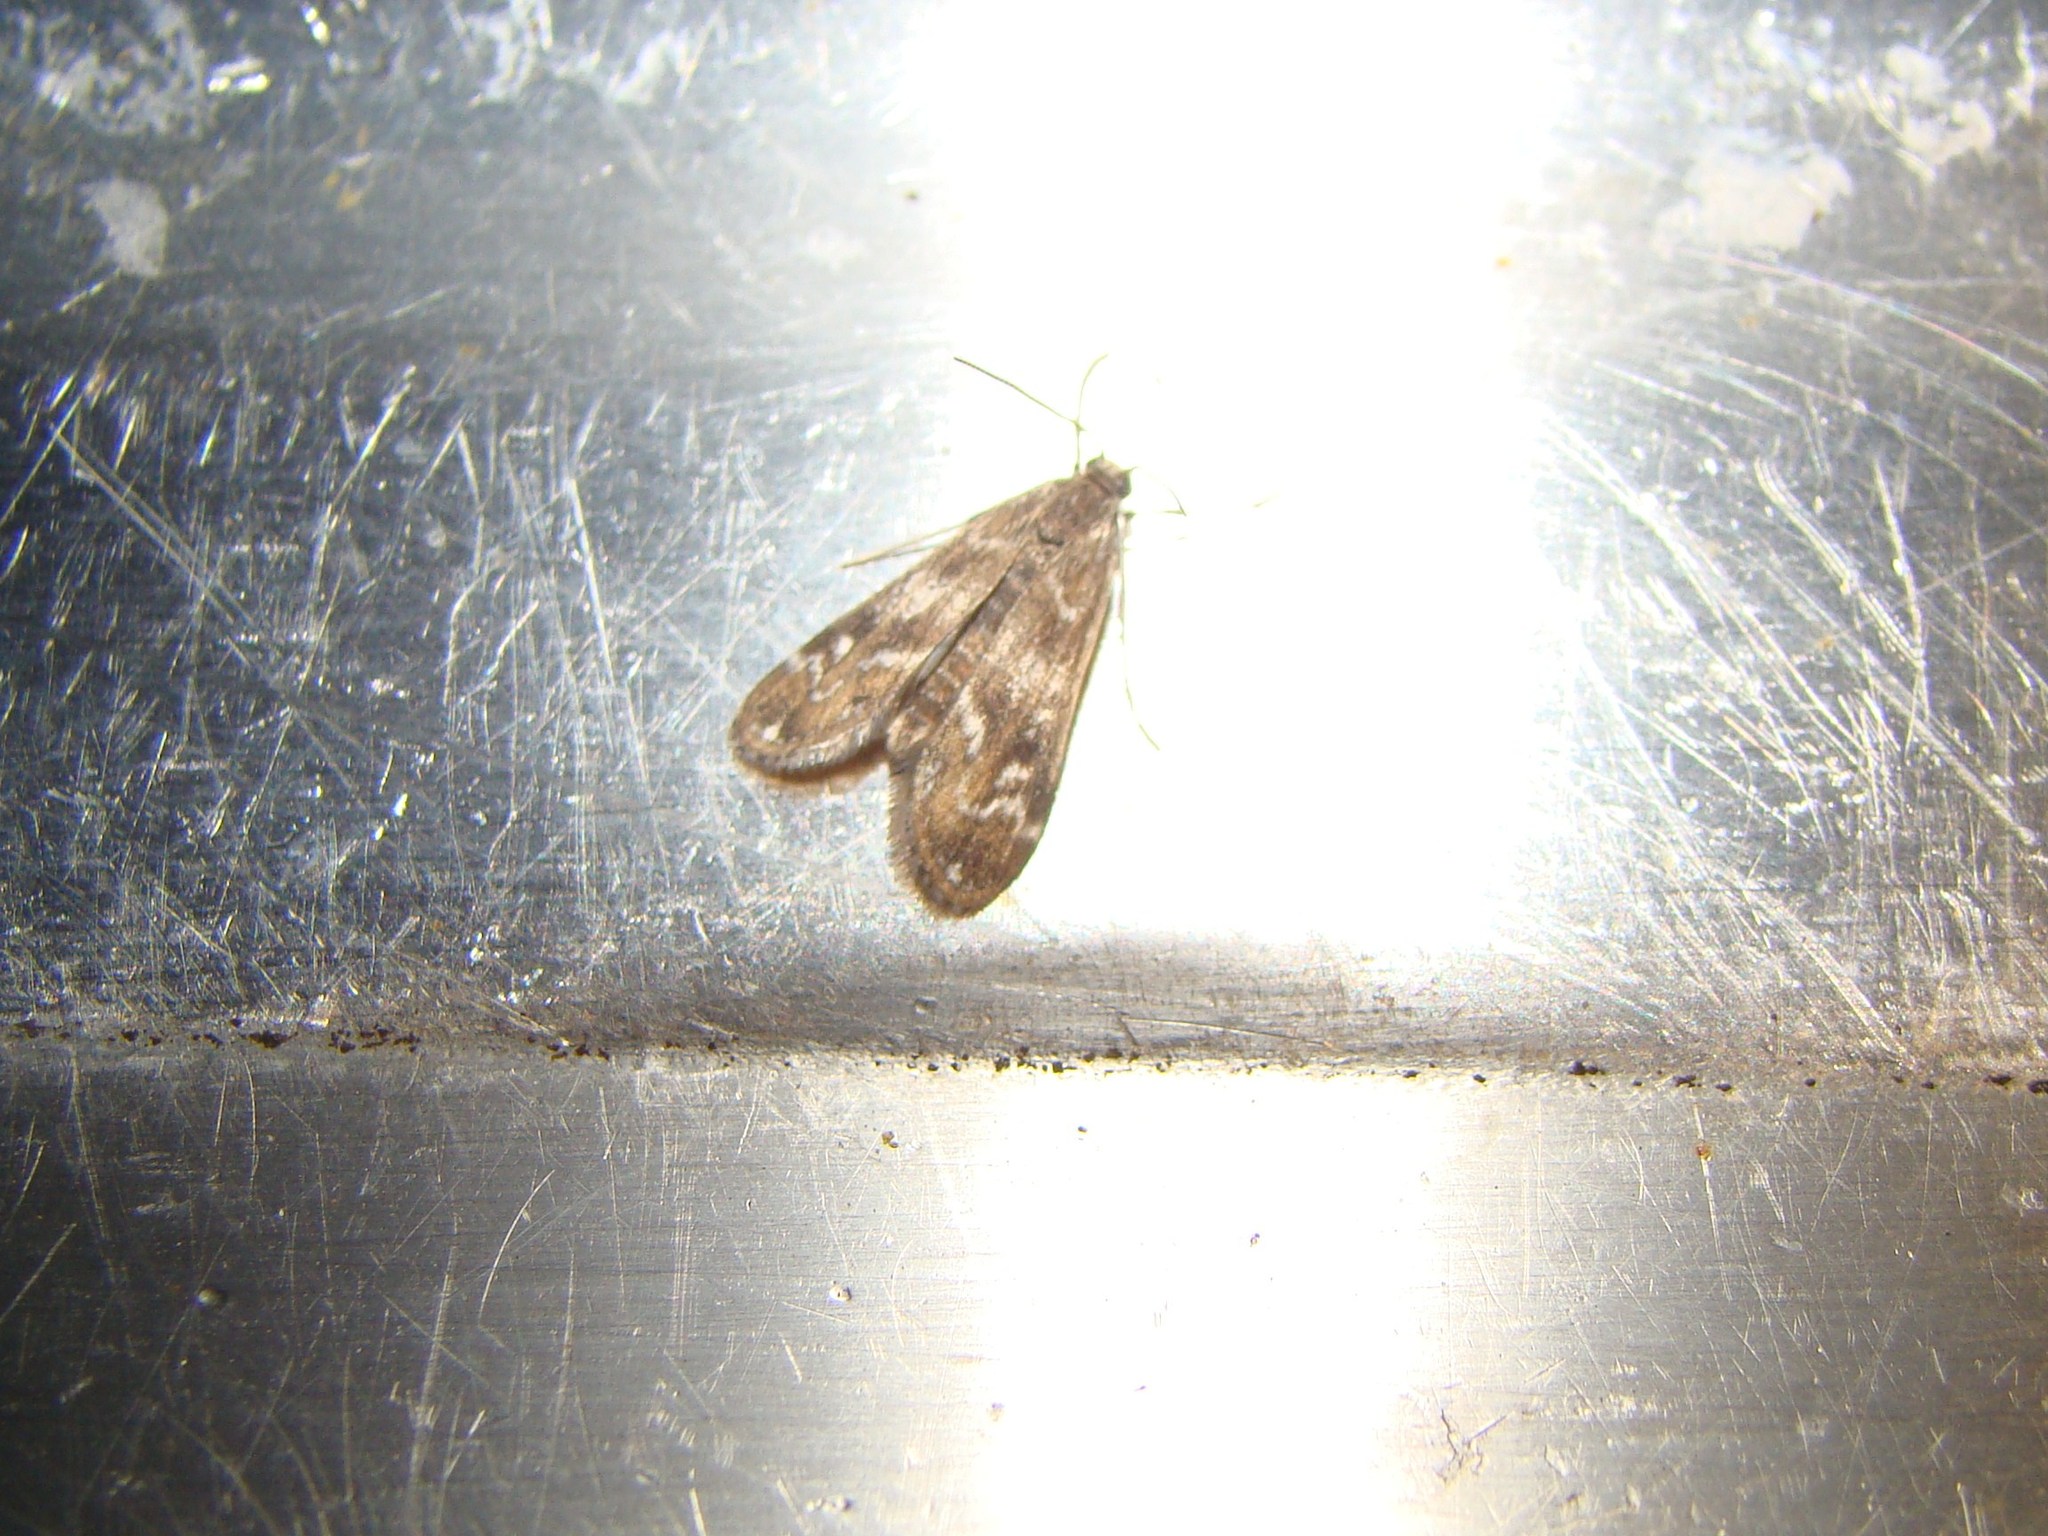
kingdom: Animalia
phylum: Arthropoda
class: Insecta
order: Lepidoptera
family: Crambidae
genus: Hygraula
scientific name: Hygraula nitens
